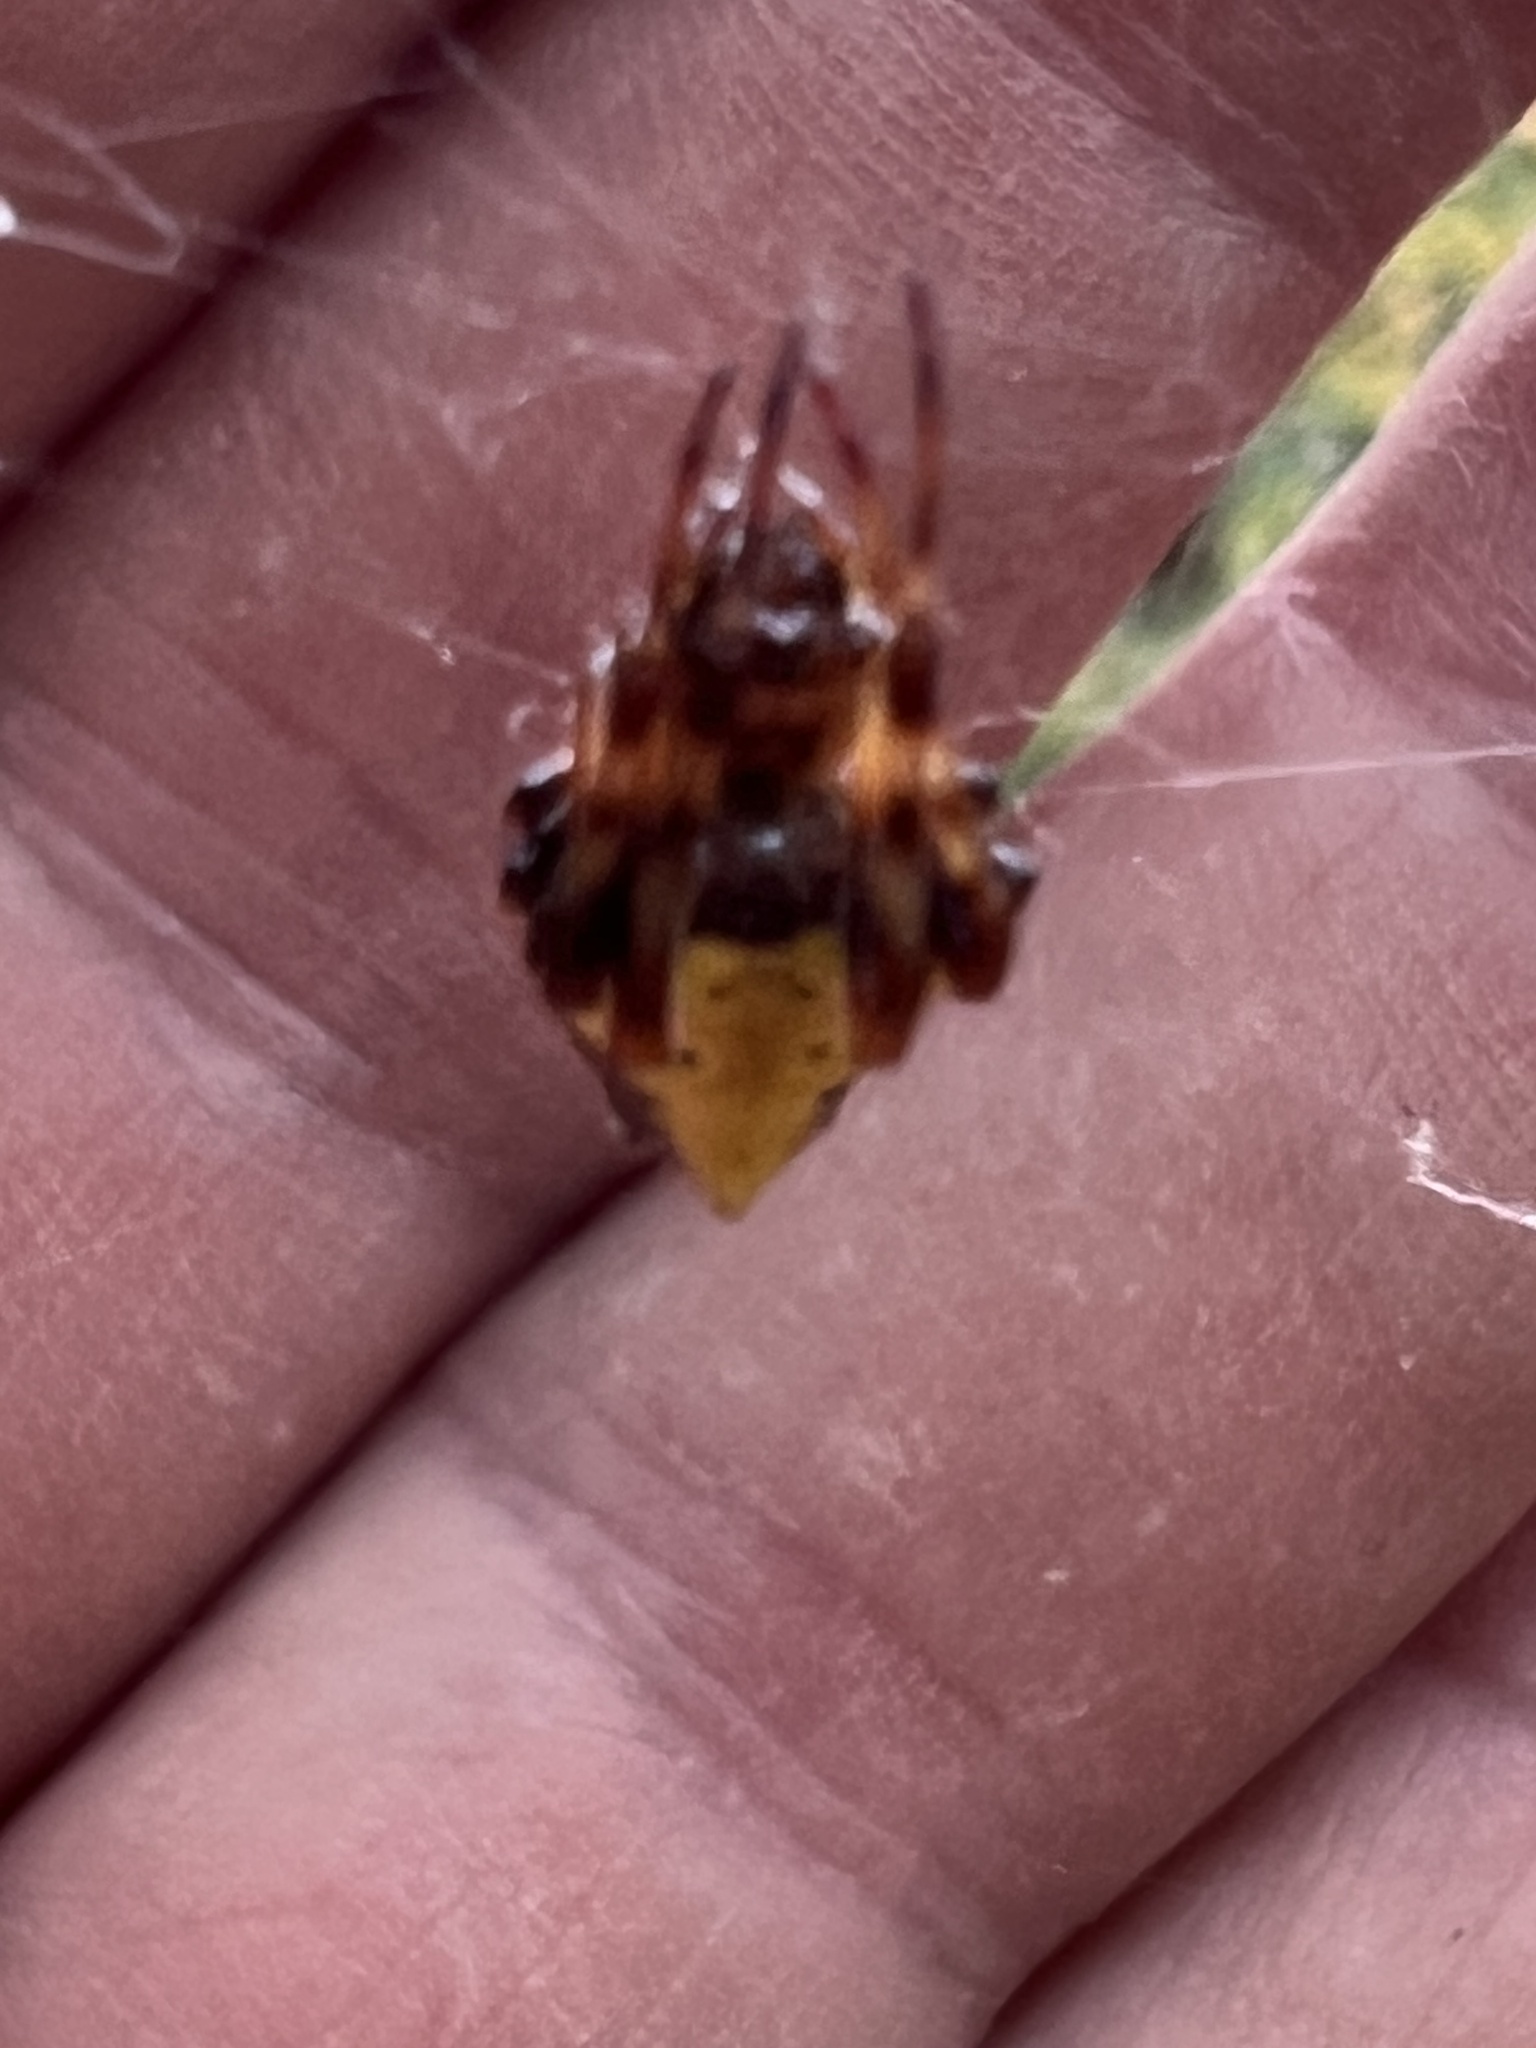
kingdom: Animalia
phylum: Arthropoda
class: Arachnida
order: Araneae
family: Araneidae
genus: Verrucosa
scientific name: Verrucosa arenata
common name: Orb weavers
